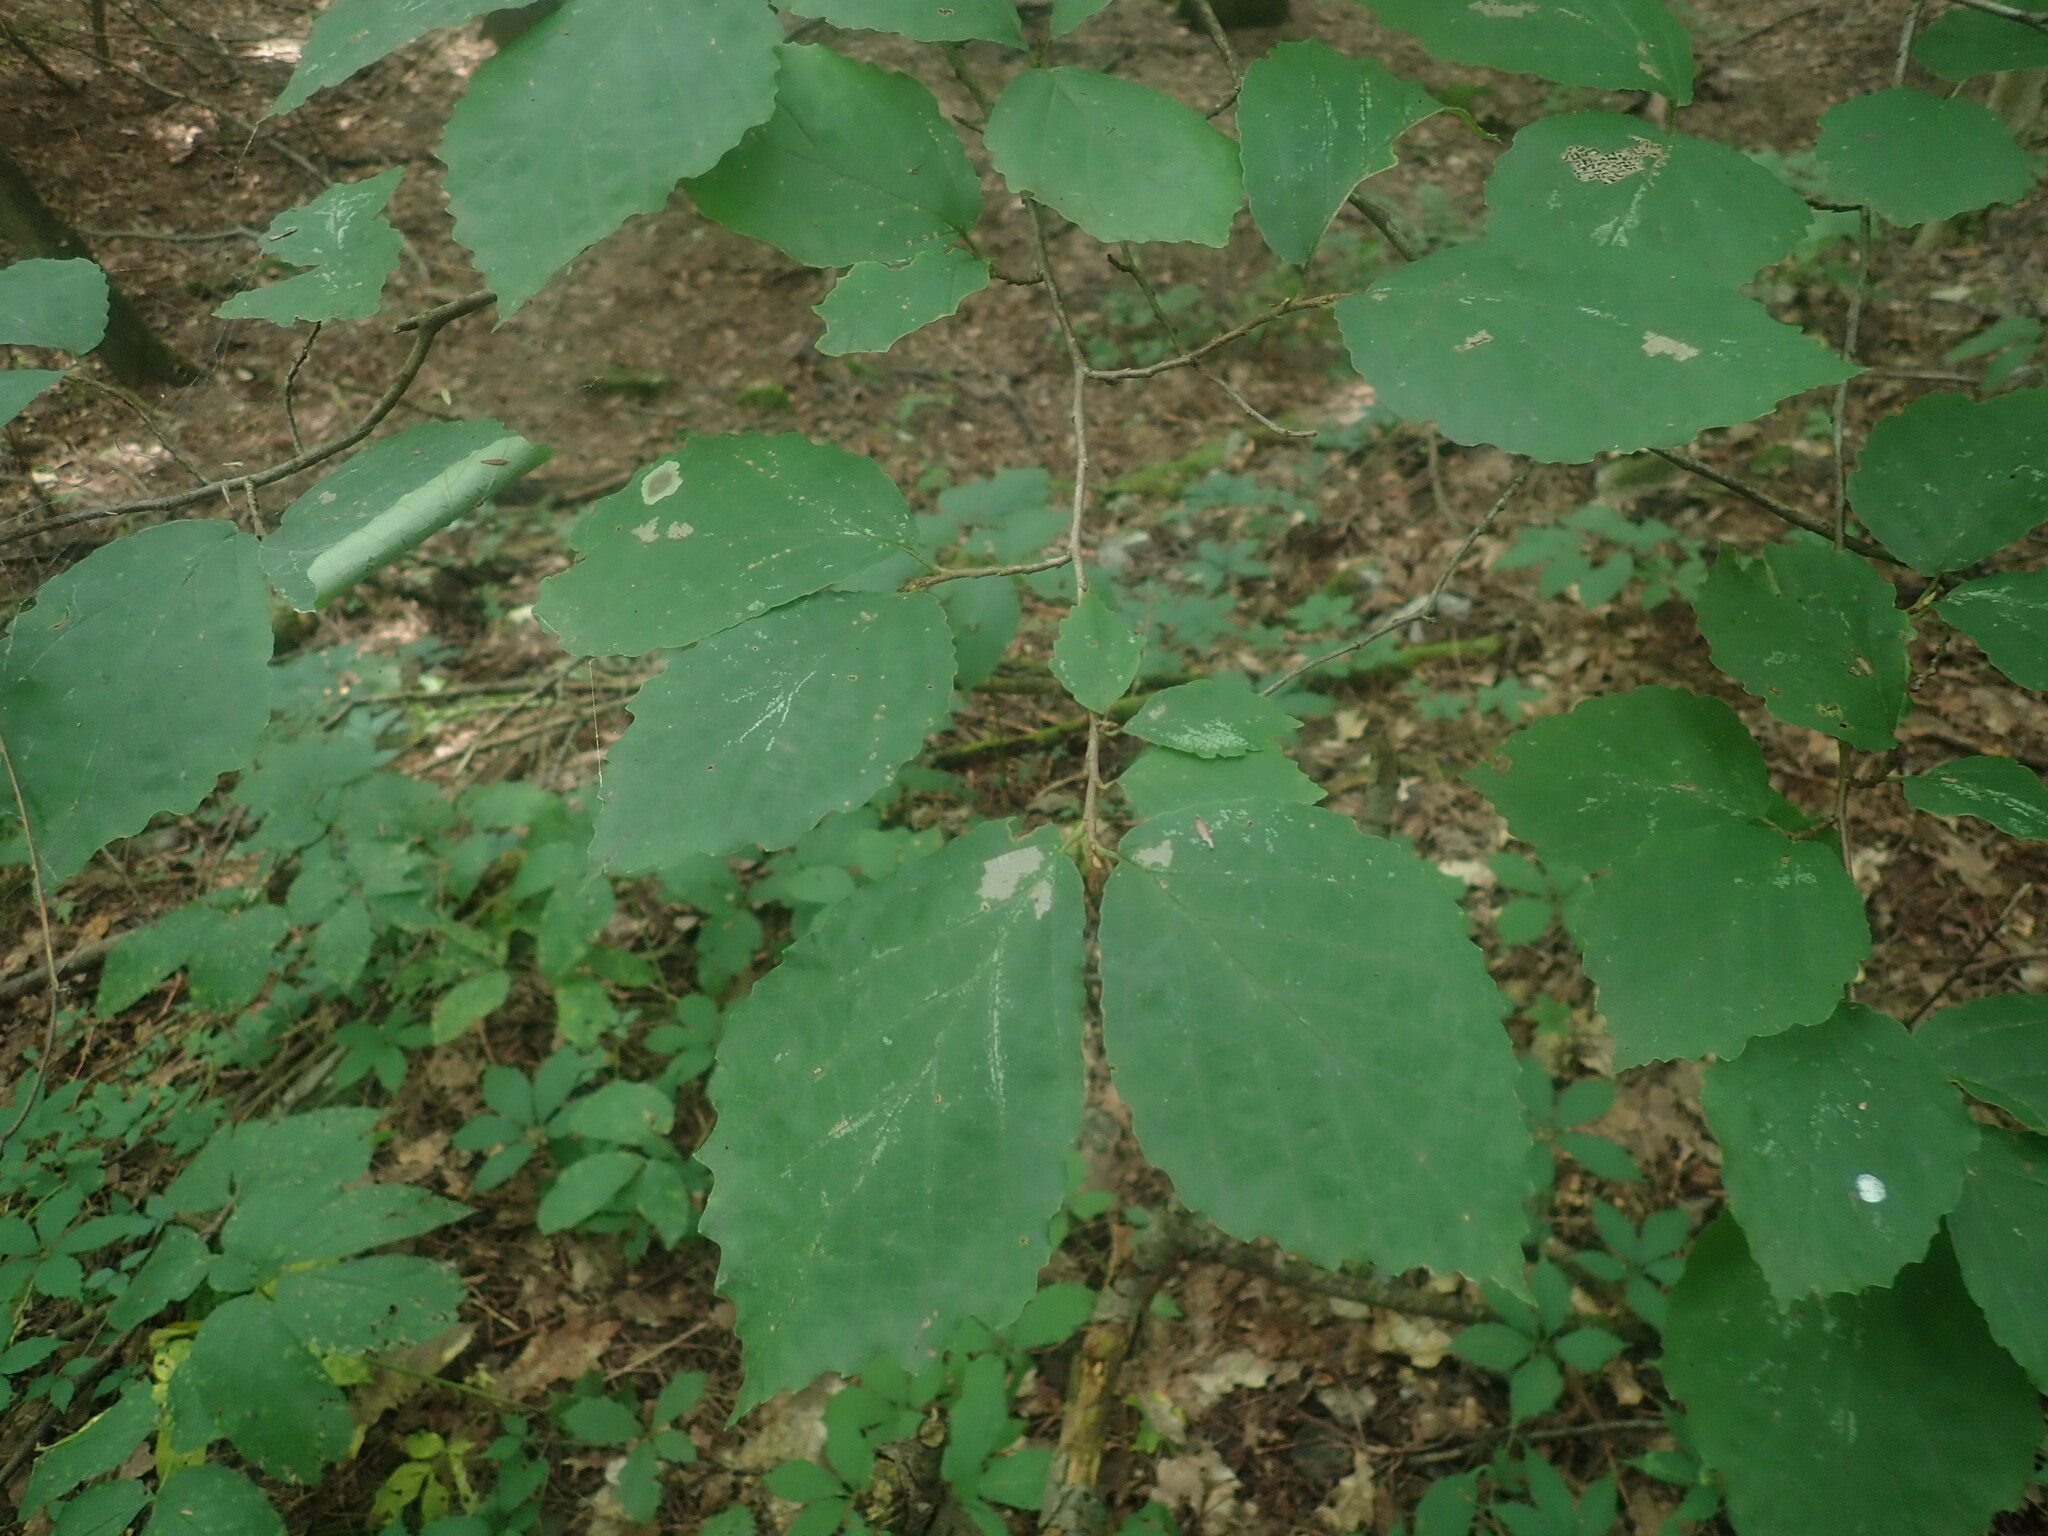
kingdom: Plantae
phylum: Tracheophyta
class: Magnoliopsida
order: Saxifragales
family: Hamamelidaceae
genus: Hamamelis
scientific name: Hamamelis virginiana
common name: Witch-hazel
